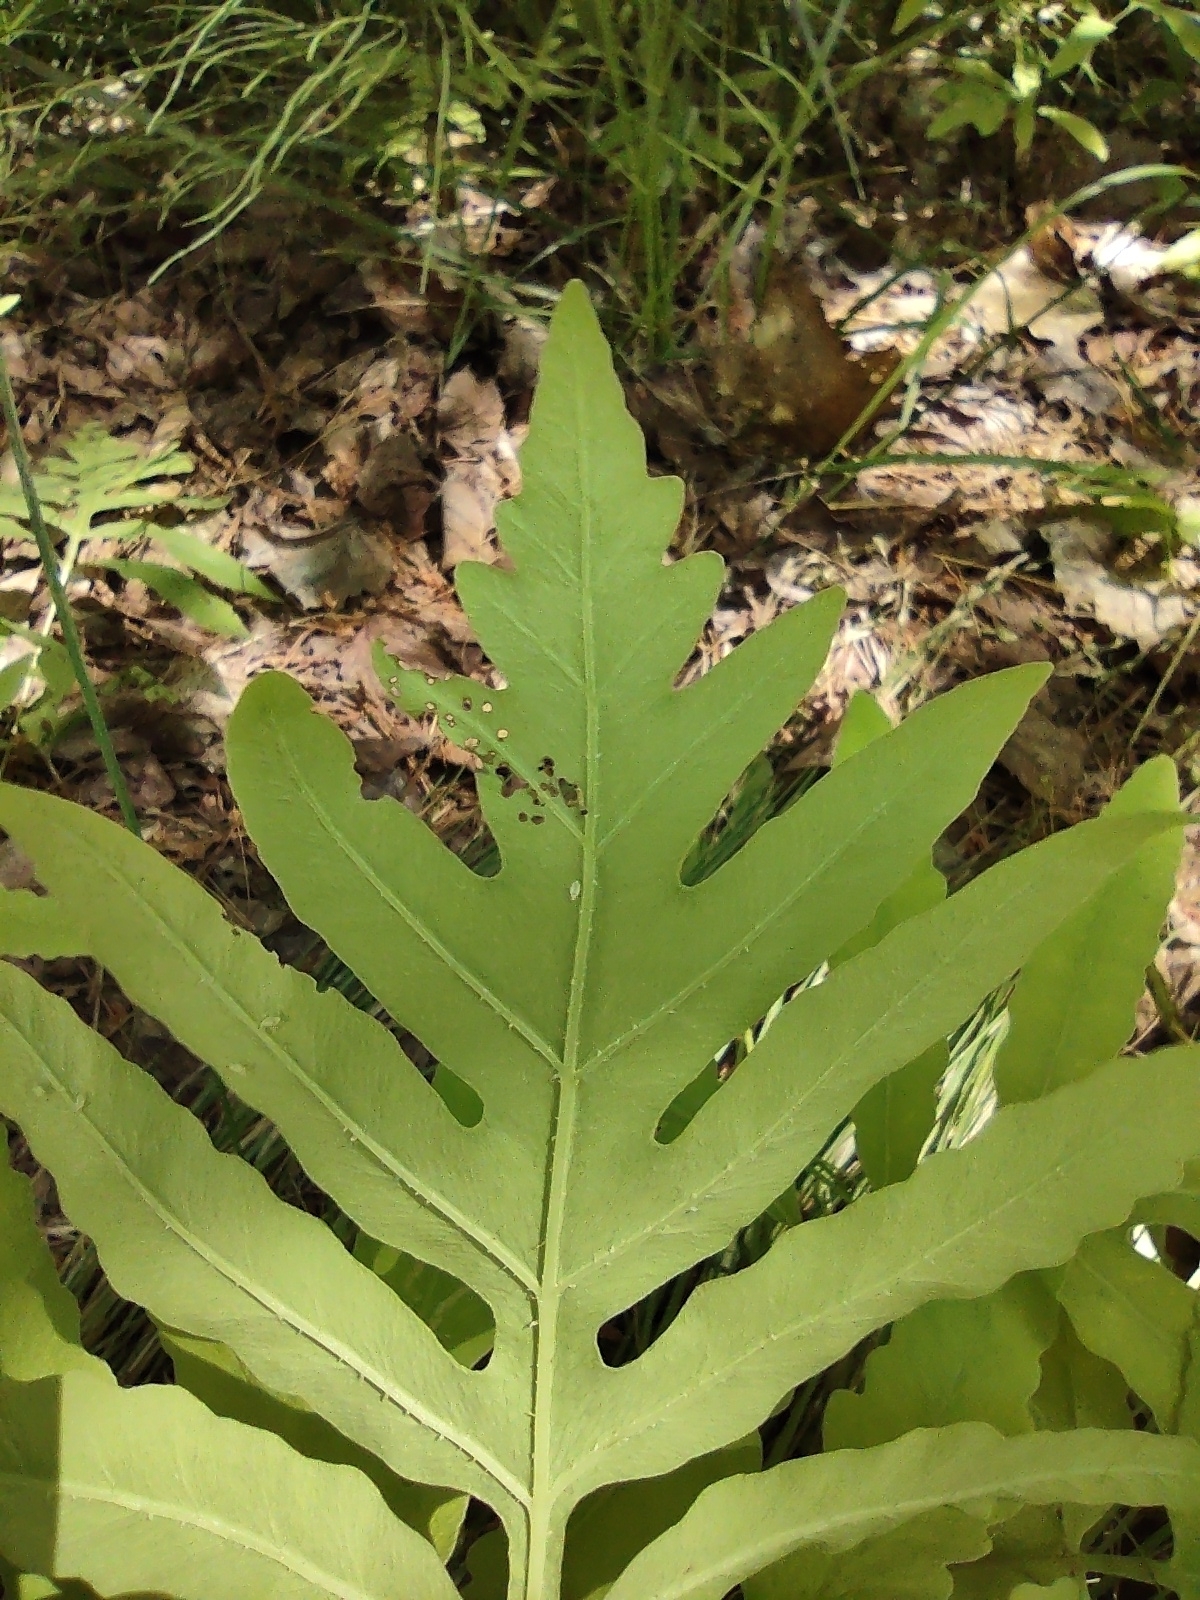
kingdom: Plantae
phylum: Tracheophyta
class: Polypodiopsida
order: Polypodiales
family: Onocleaceae
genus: Onoclea
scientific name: Onoclea sensibilis
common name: Sensitive fern
